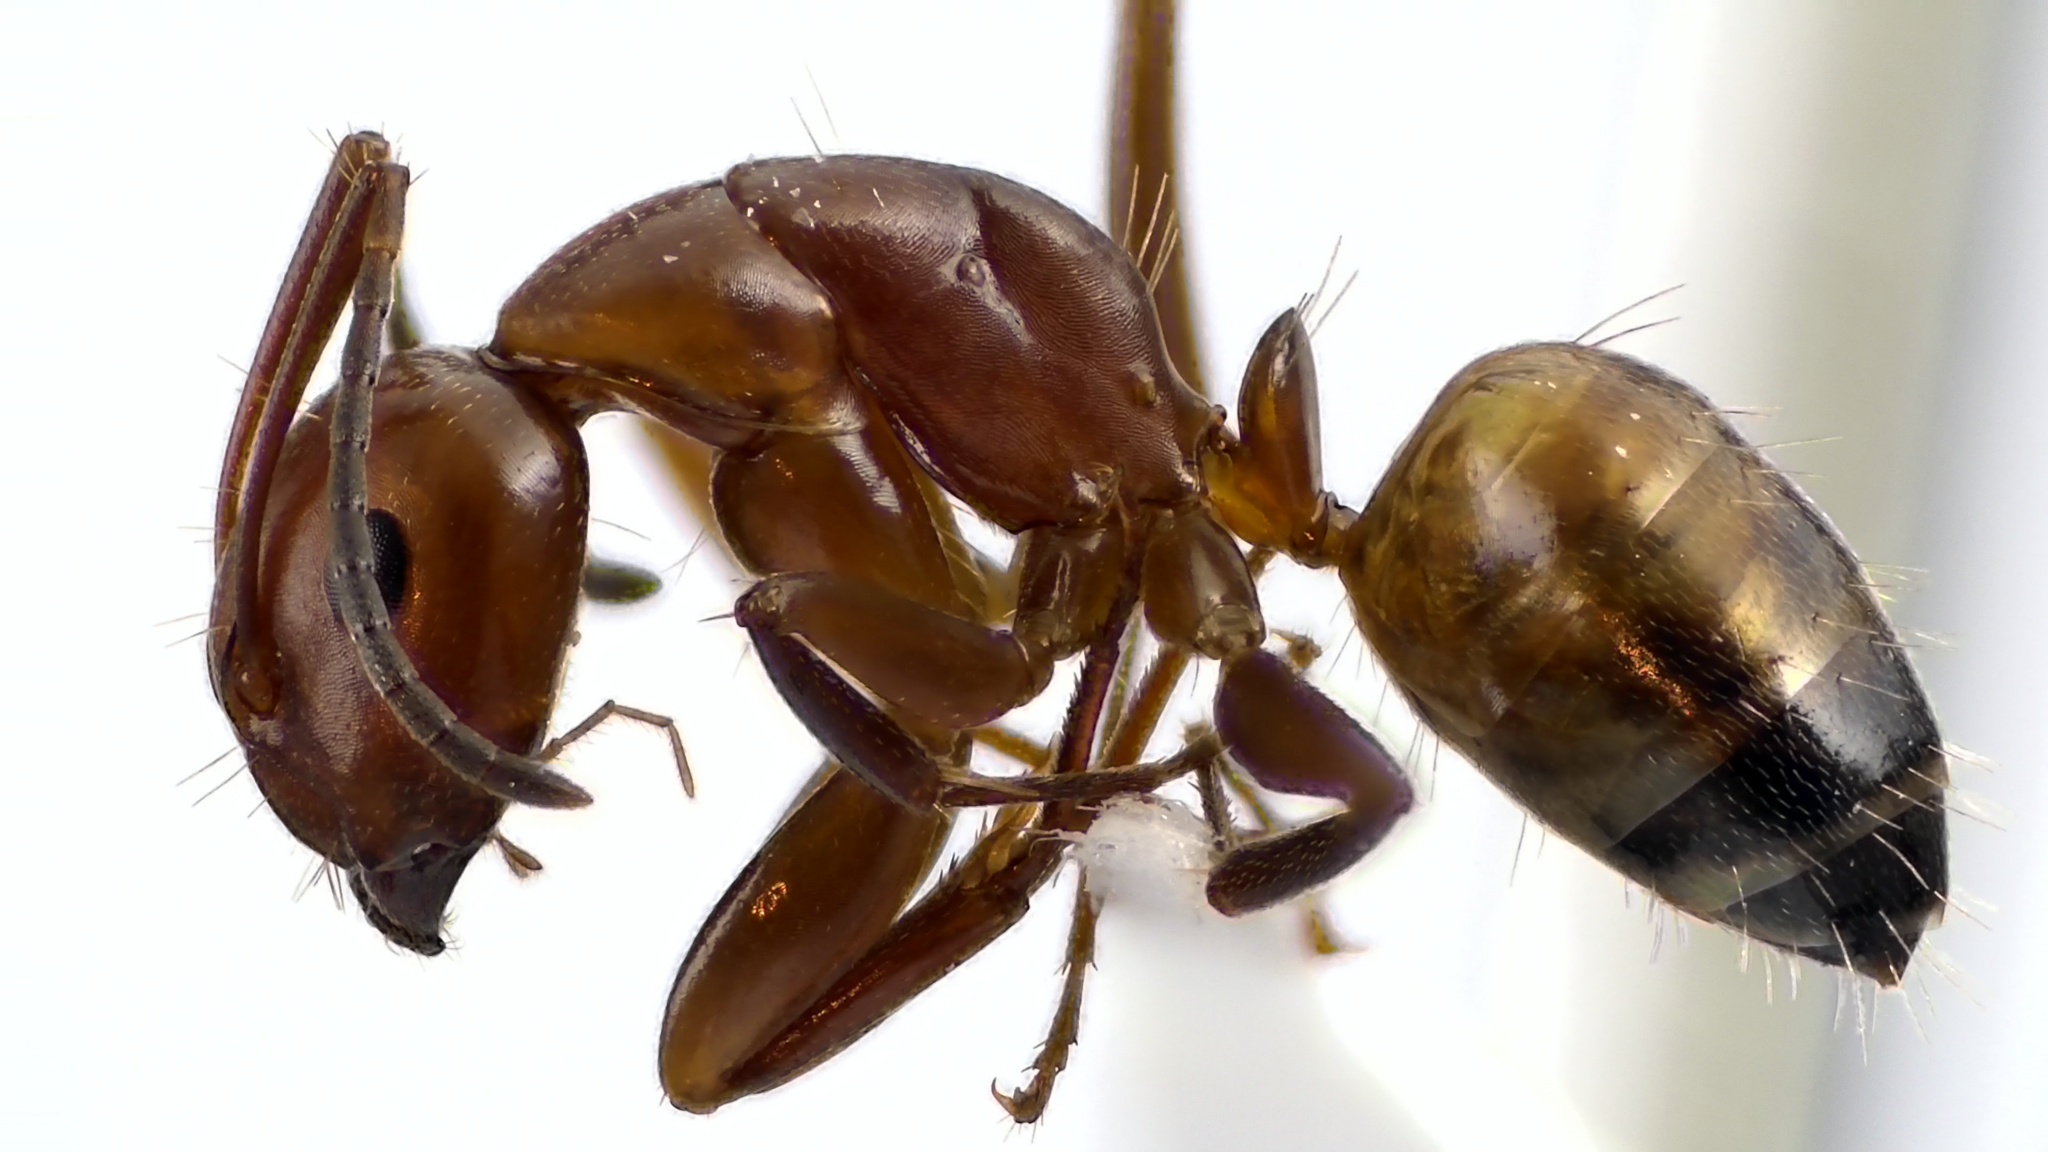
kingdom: Animalia
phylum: Arthropoda
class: Insecta
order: Hymenoptera
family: Formicidae
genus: Camponotus
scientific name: Camponotus snellingi
